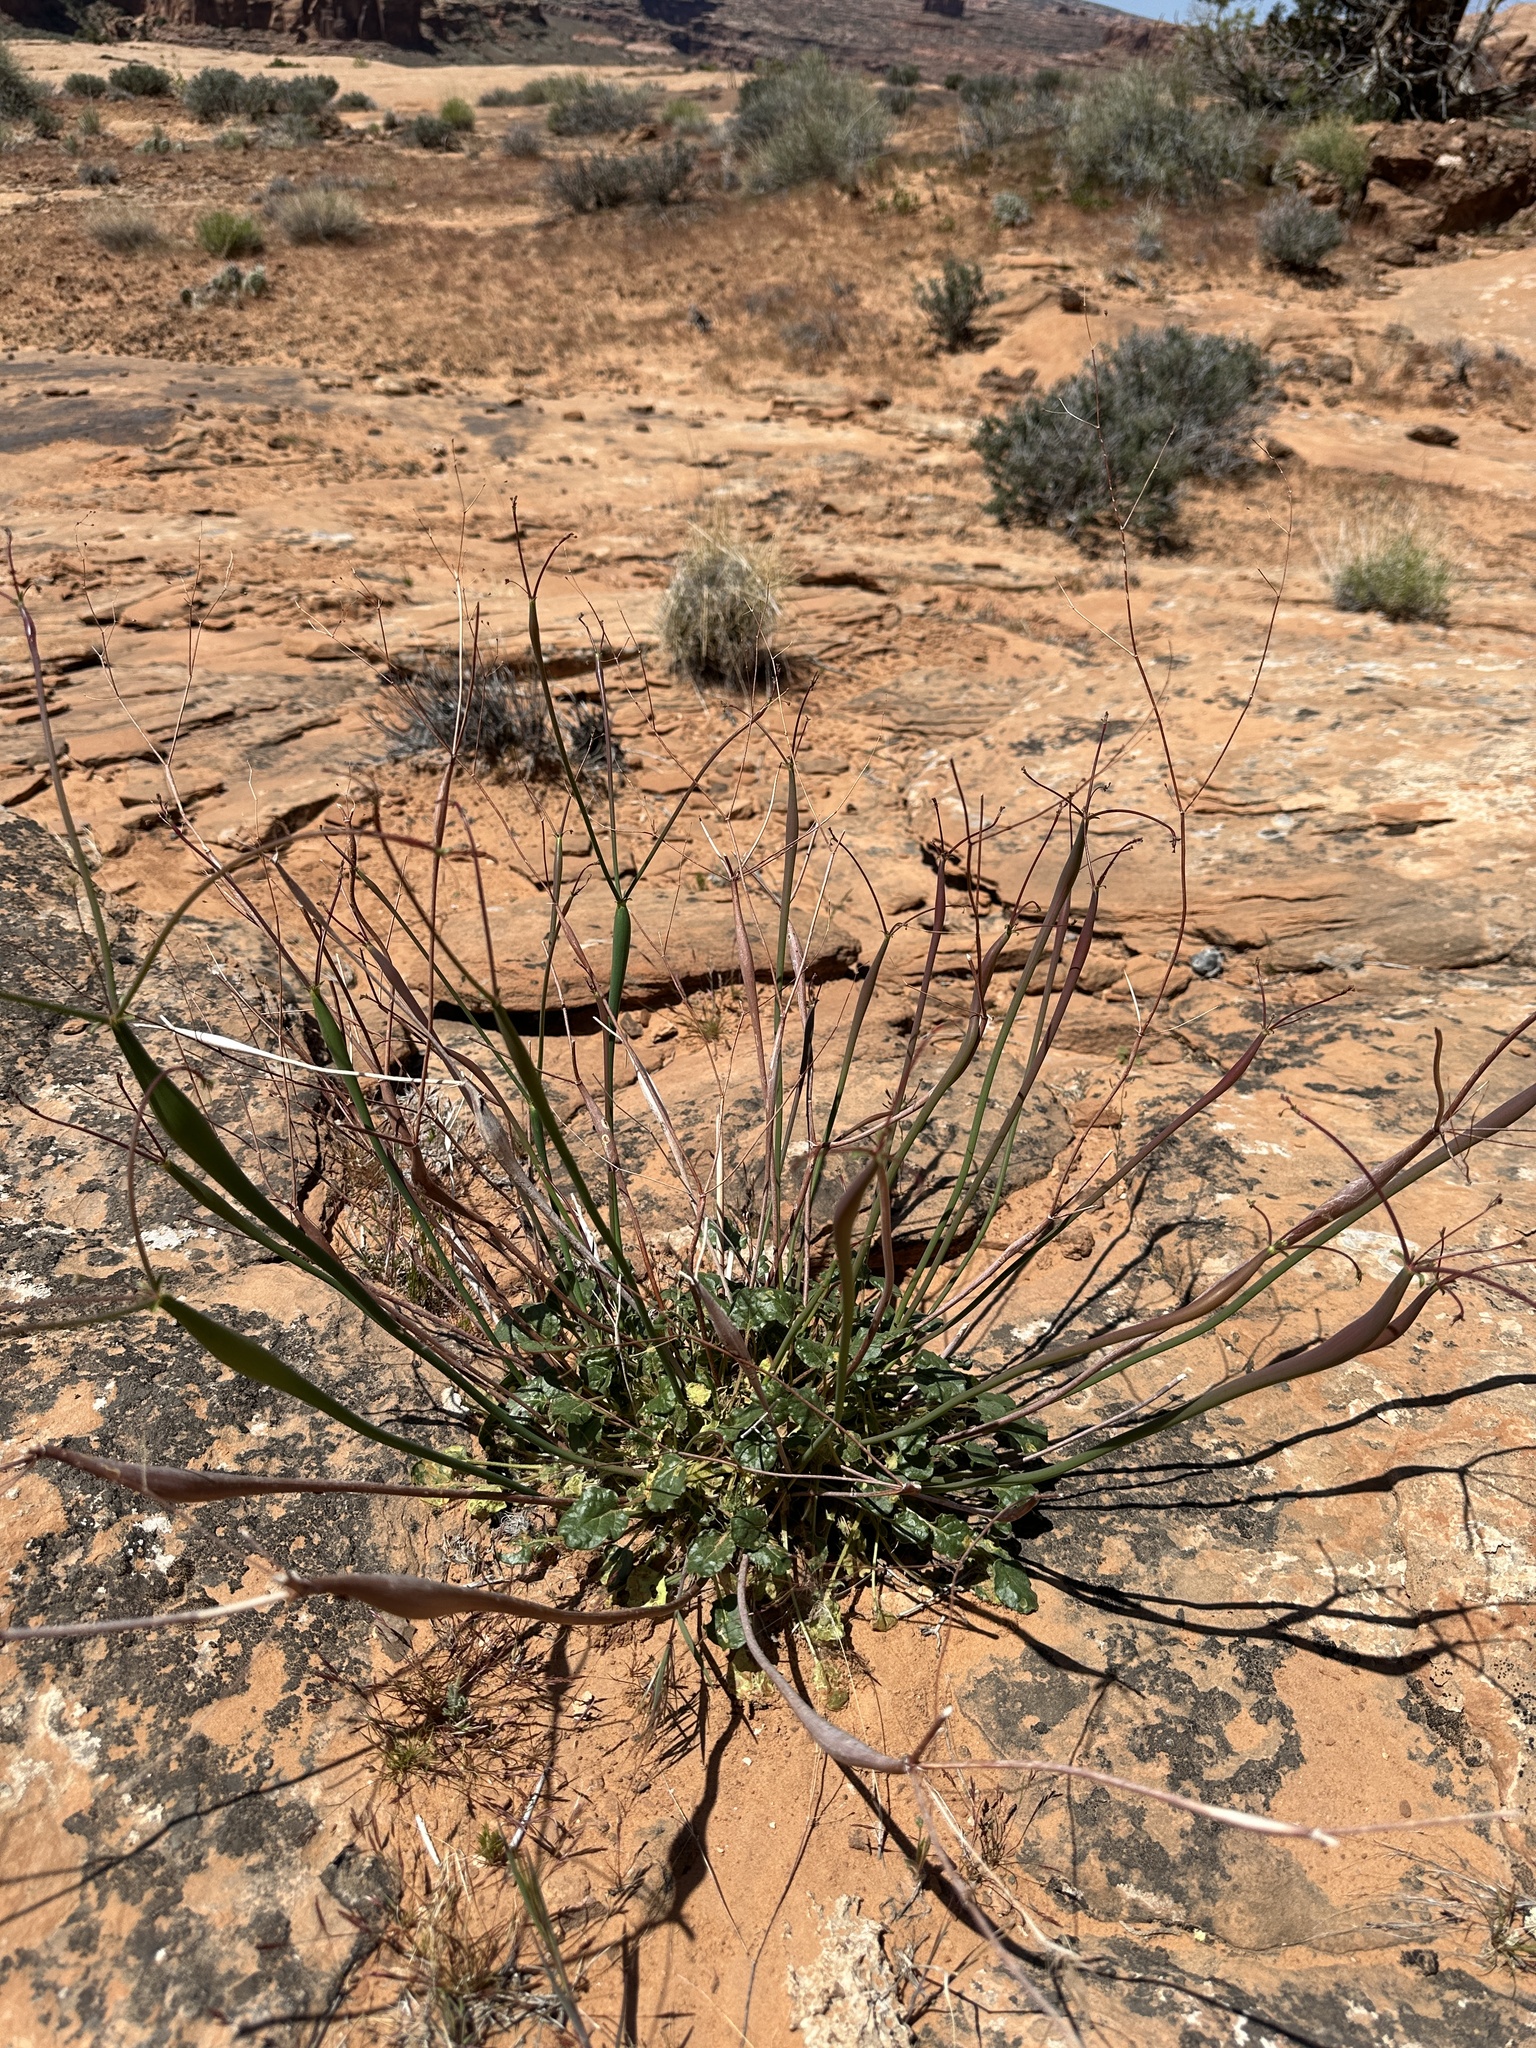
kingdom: Plantae
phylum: Tracheophyta
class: Magnoliopsida
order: Caryophyllales
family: Polygonaceae
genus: Eriogonum
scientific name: Eriogonum inflatum
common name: Desert trumpet
